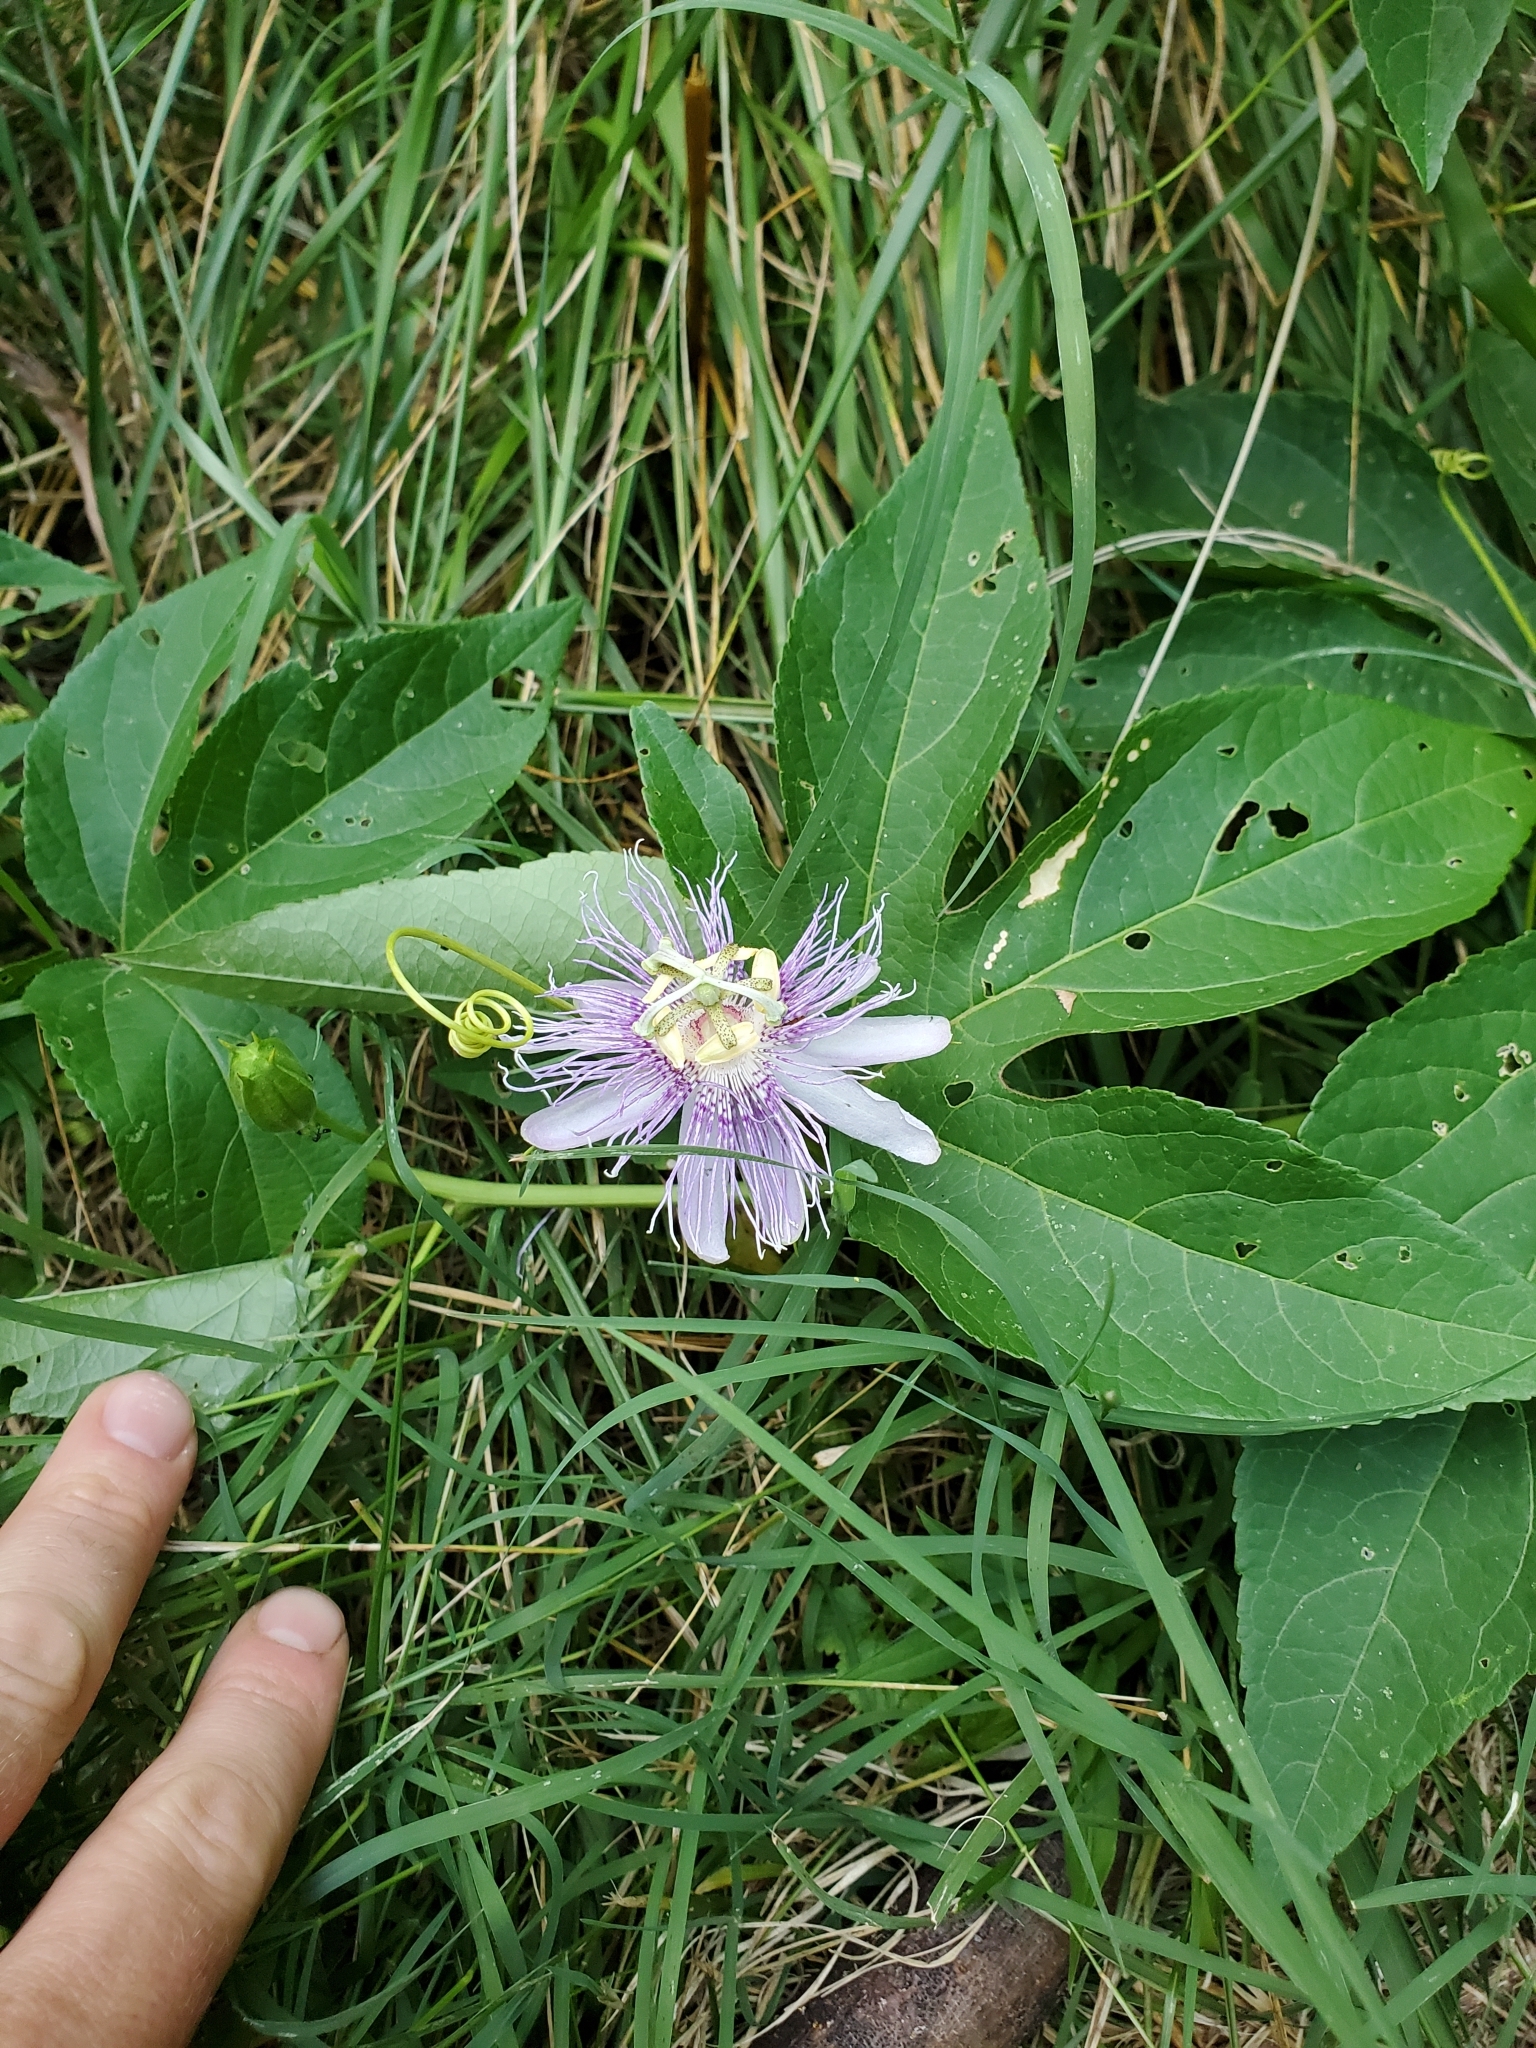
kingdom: Plantae
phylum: Tracheophyta
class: Magnoliopsida
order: Malpighiales
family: Passifloraceae
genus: Passiflora
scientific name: Passiflora incarnata
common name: Apricot-vine
